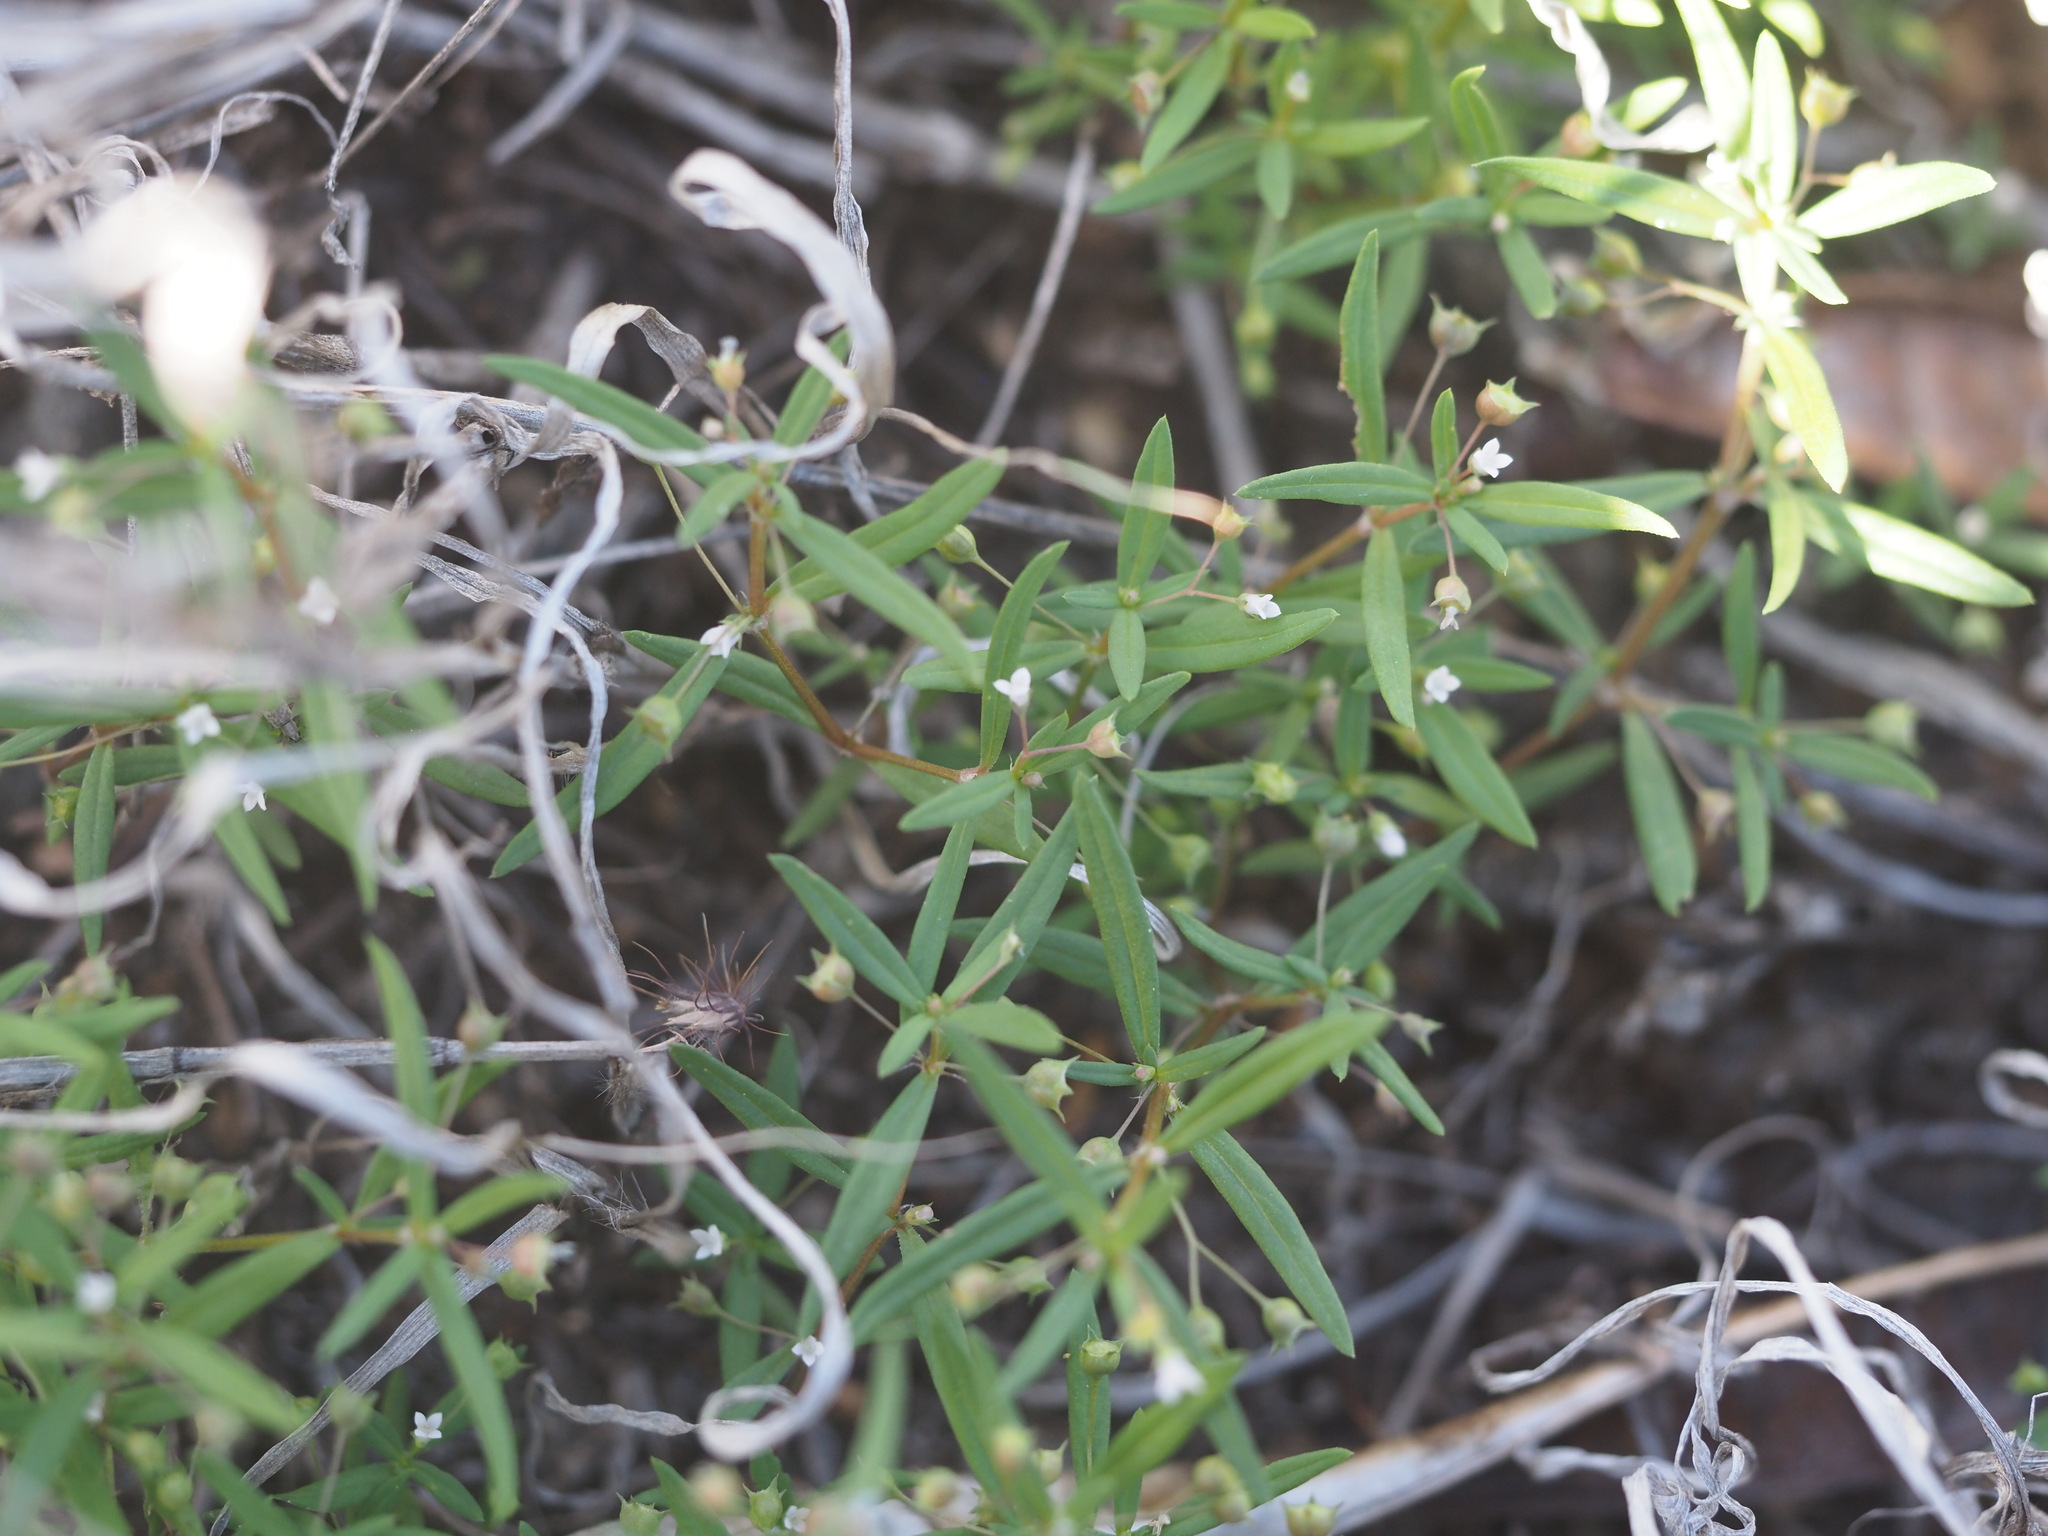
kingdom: Plantae
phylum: Tracheophyta
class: Magnoliopsida
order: Gentianales
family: Rubiaceae
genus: Oldenlandia
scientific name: Oldenlandia corymbosa
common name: Flat-top mille graines
